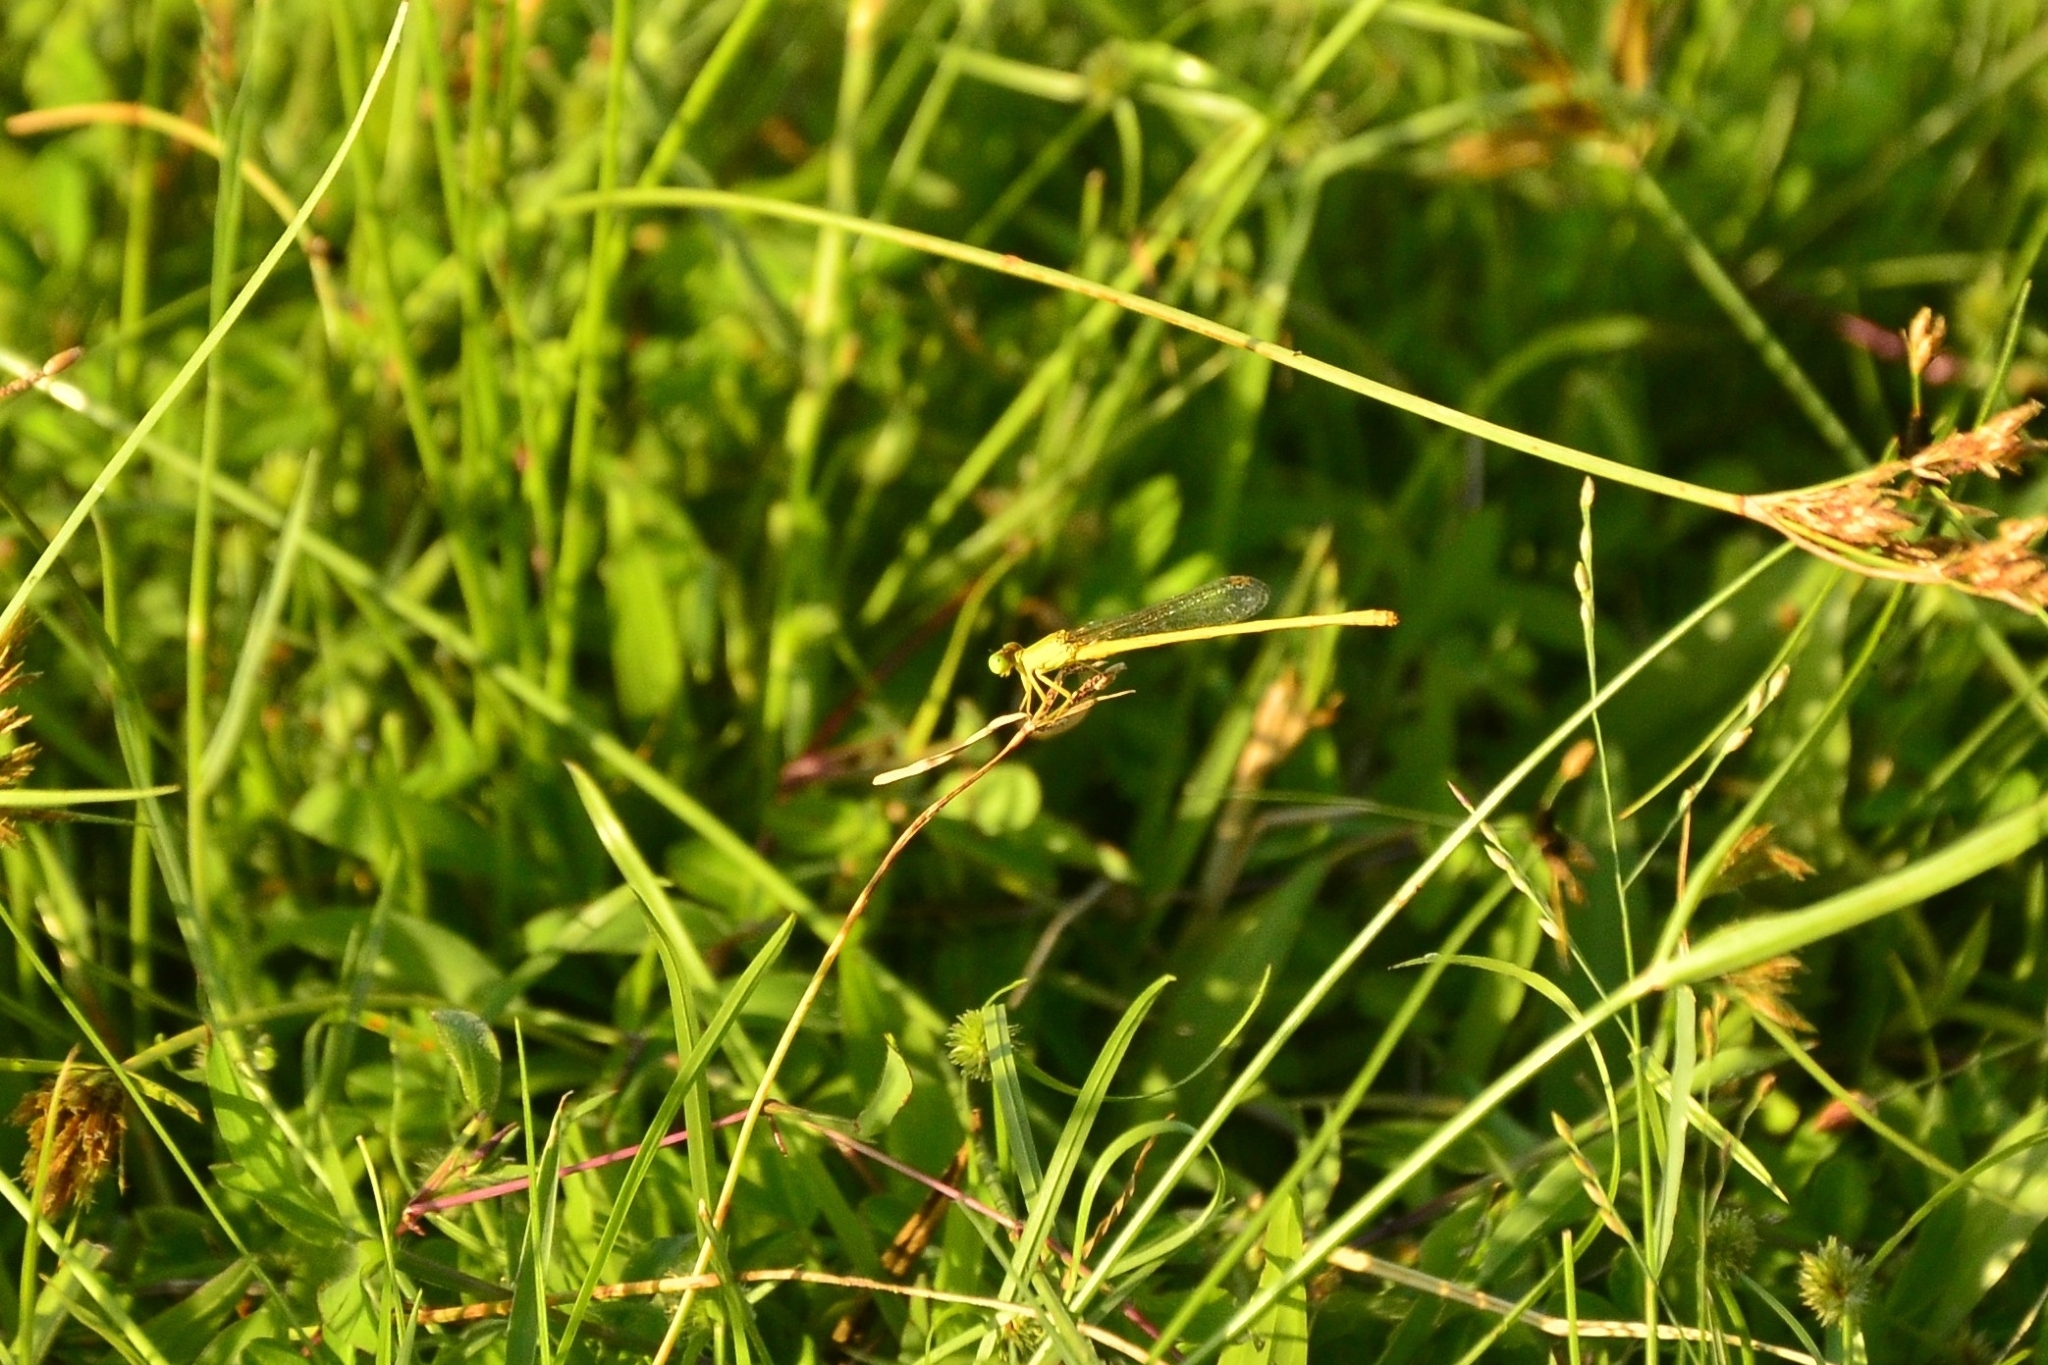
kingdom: Animalia
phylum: Arthropoda
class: Insecta
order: Odonata
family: Coenagrionidae
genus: Ceriagrion
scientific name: Ceriagrion coromandelianum
